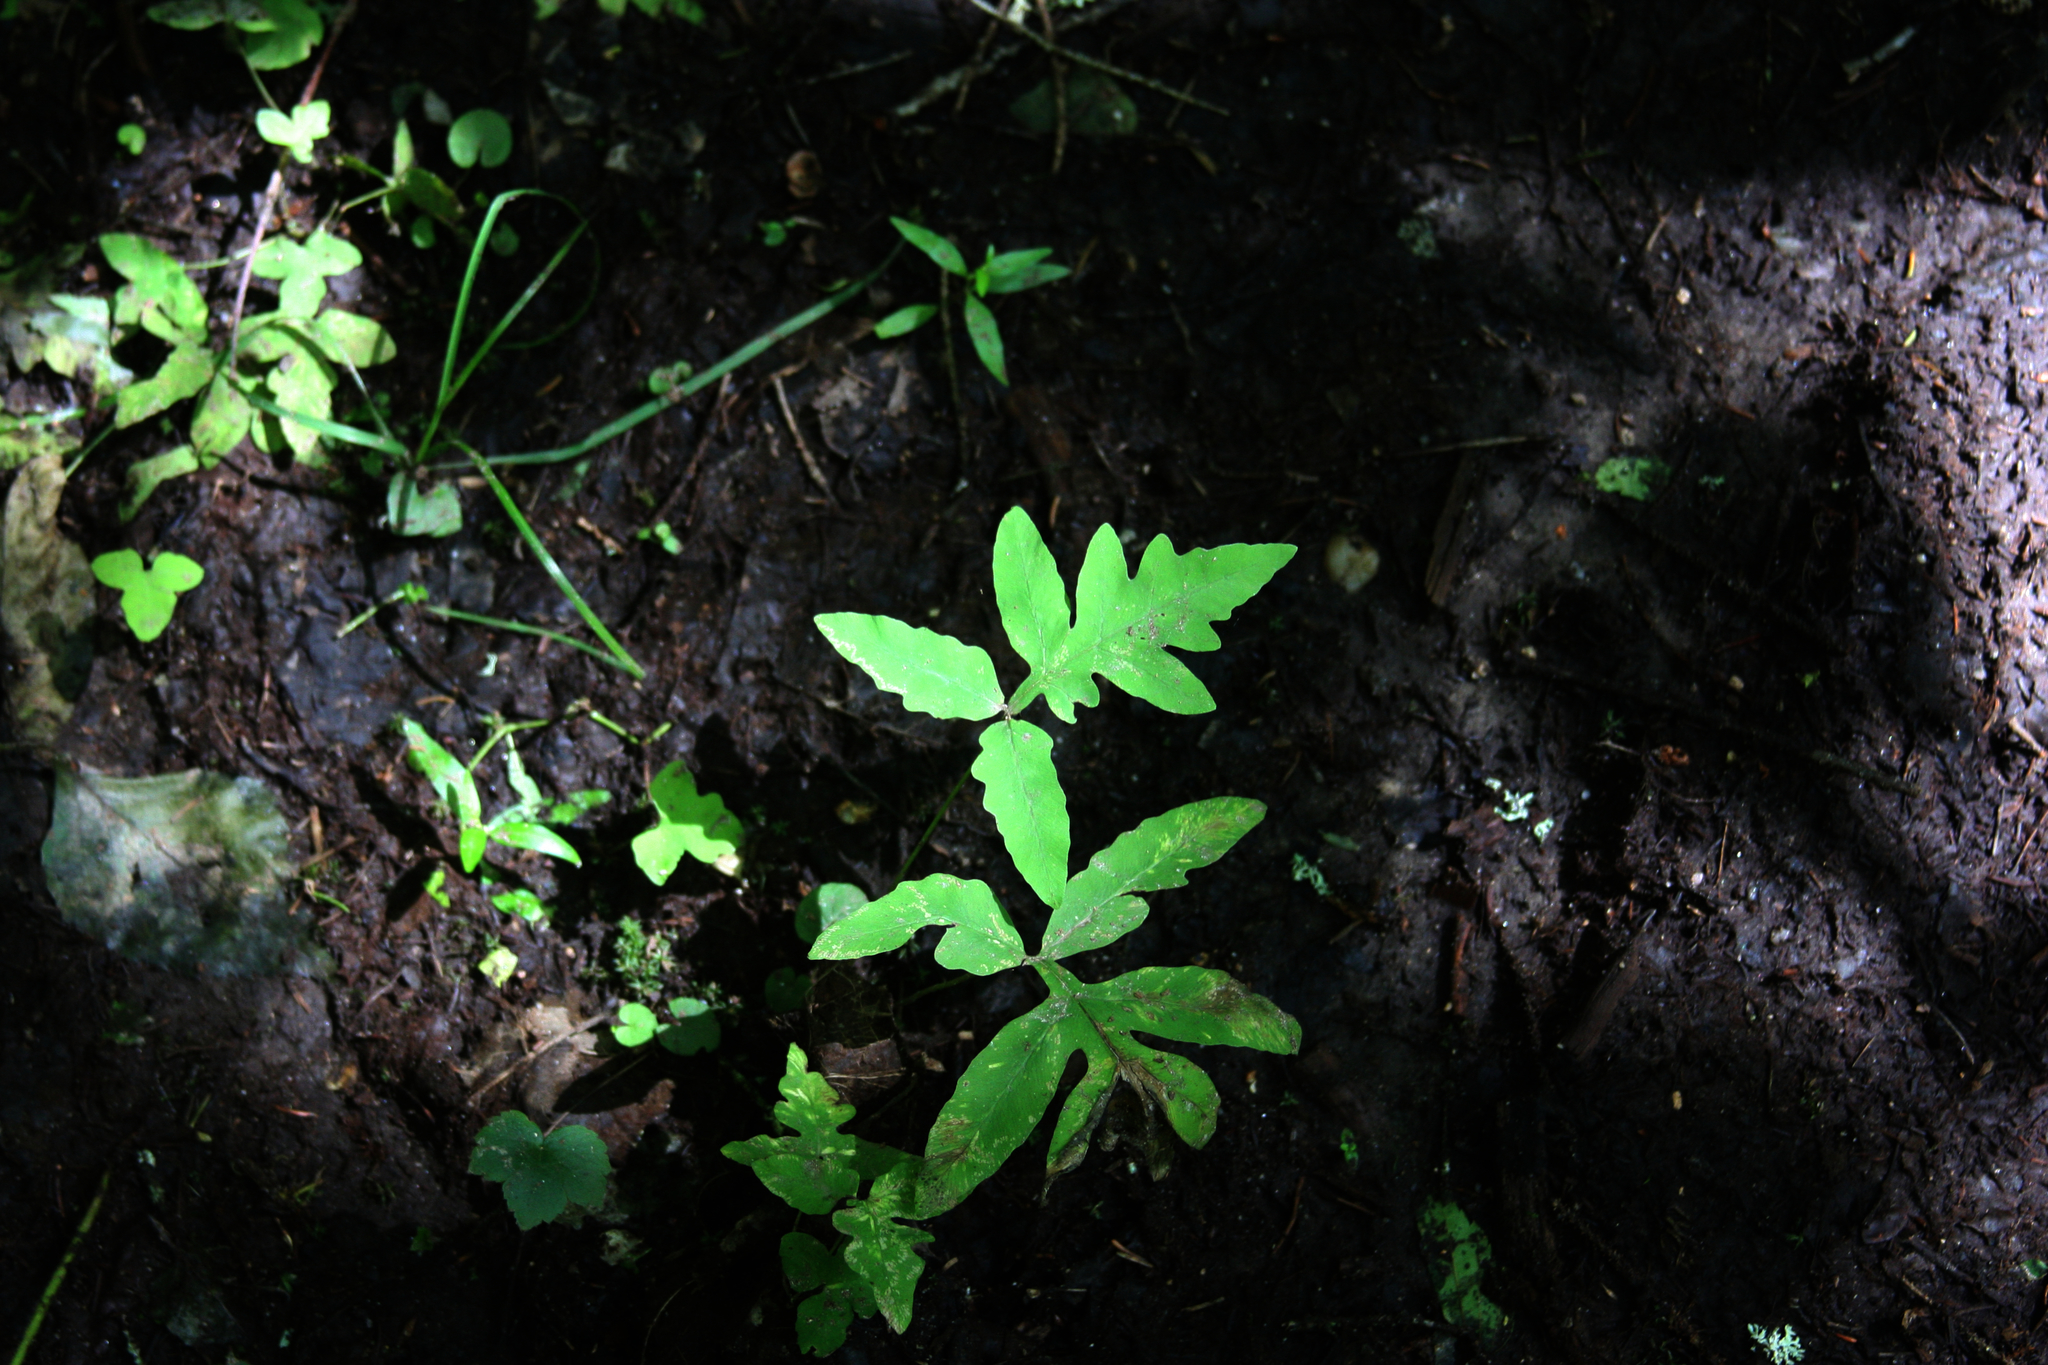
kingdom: Plantae
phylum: Tracheophyta
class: Polypodiopsida
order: Polypodiales
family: Onocleaceae
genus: Onoclea
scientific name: Onoclea sensibilis
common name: Sensitive fern
